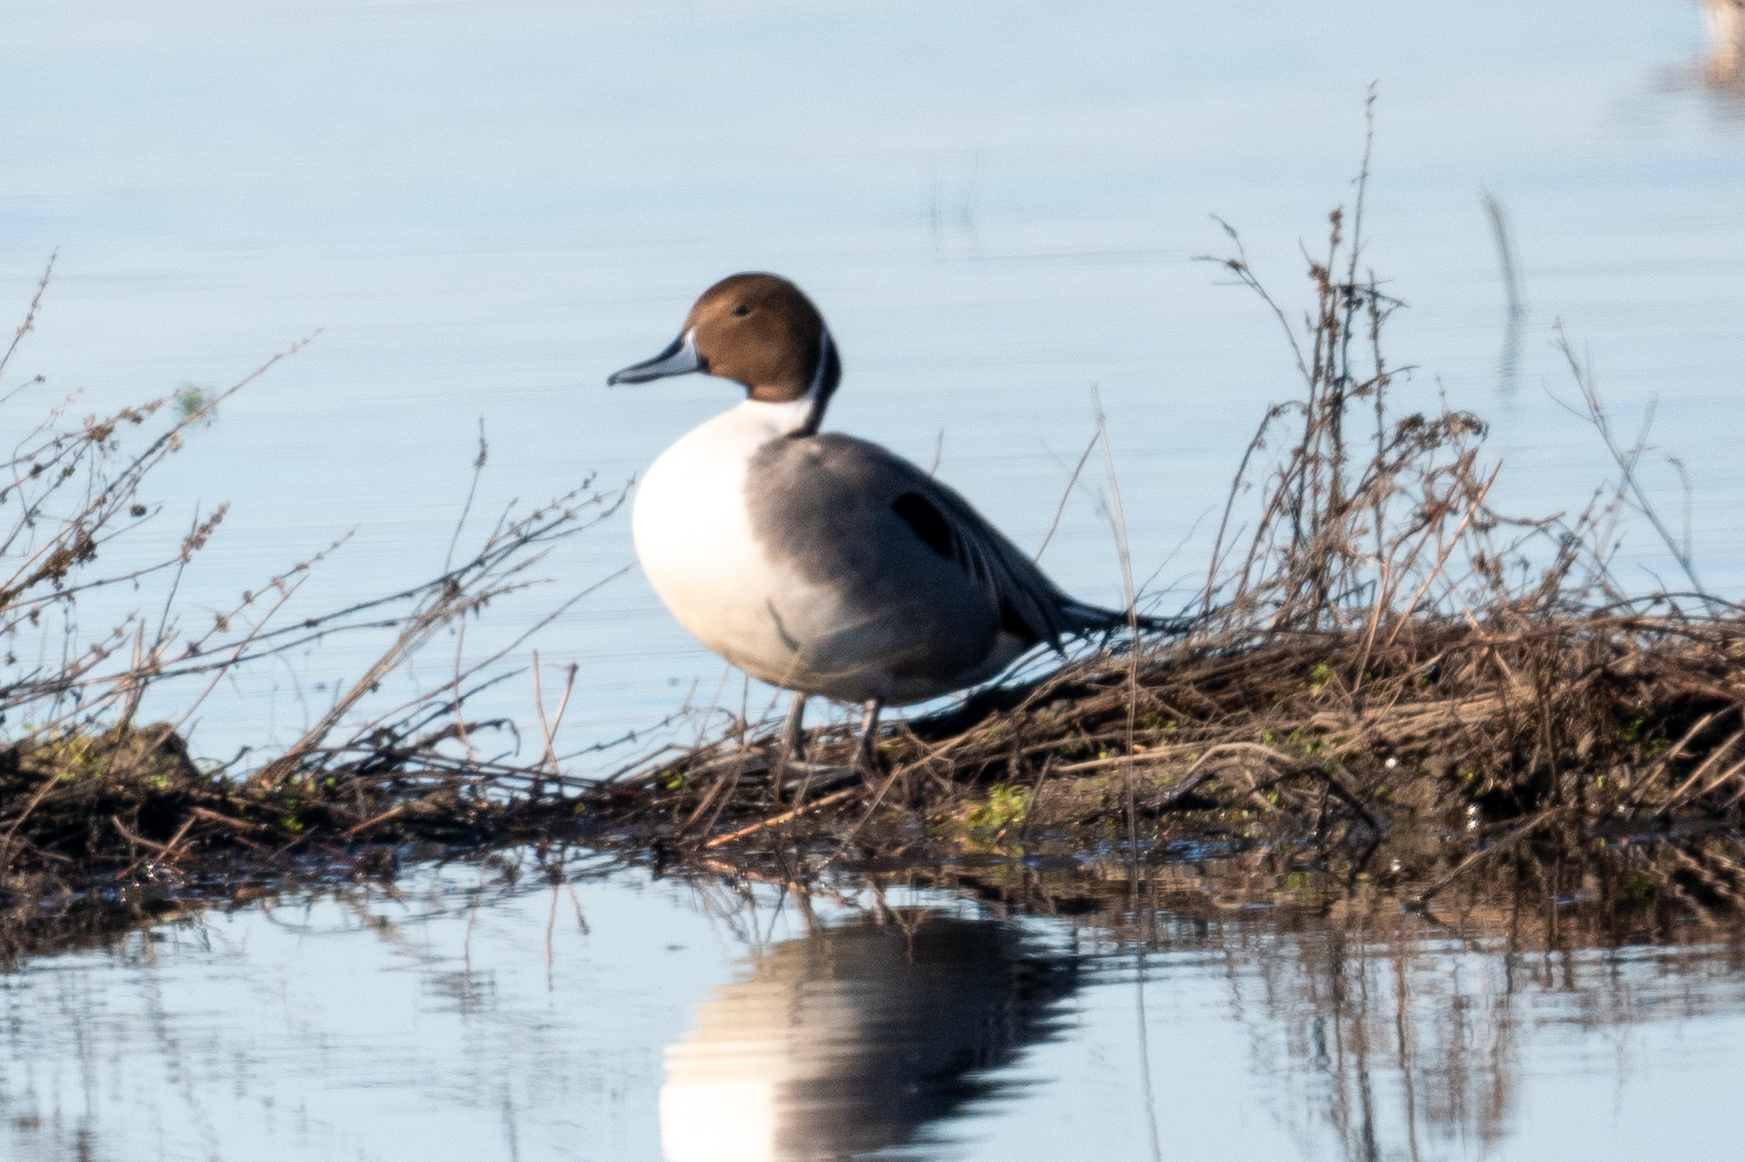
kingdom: Animalia
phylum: Chordata
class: Aves
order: Anseriformes
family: Anatidae
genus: Anas
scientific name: Anas acuta
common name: Northern pintail
